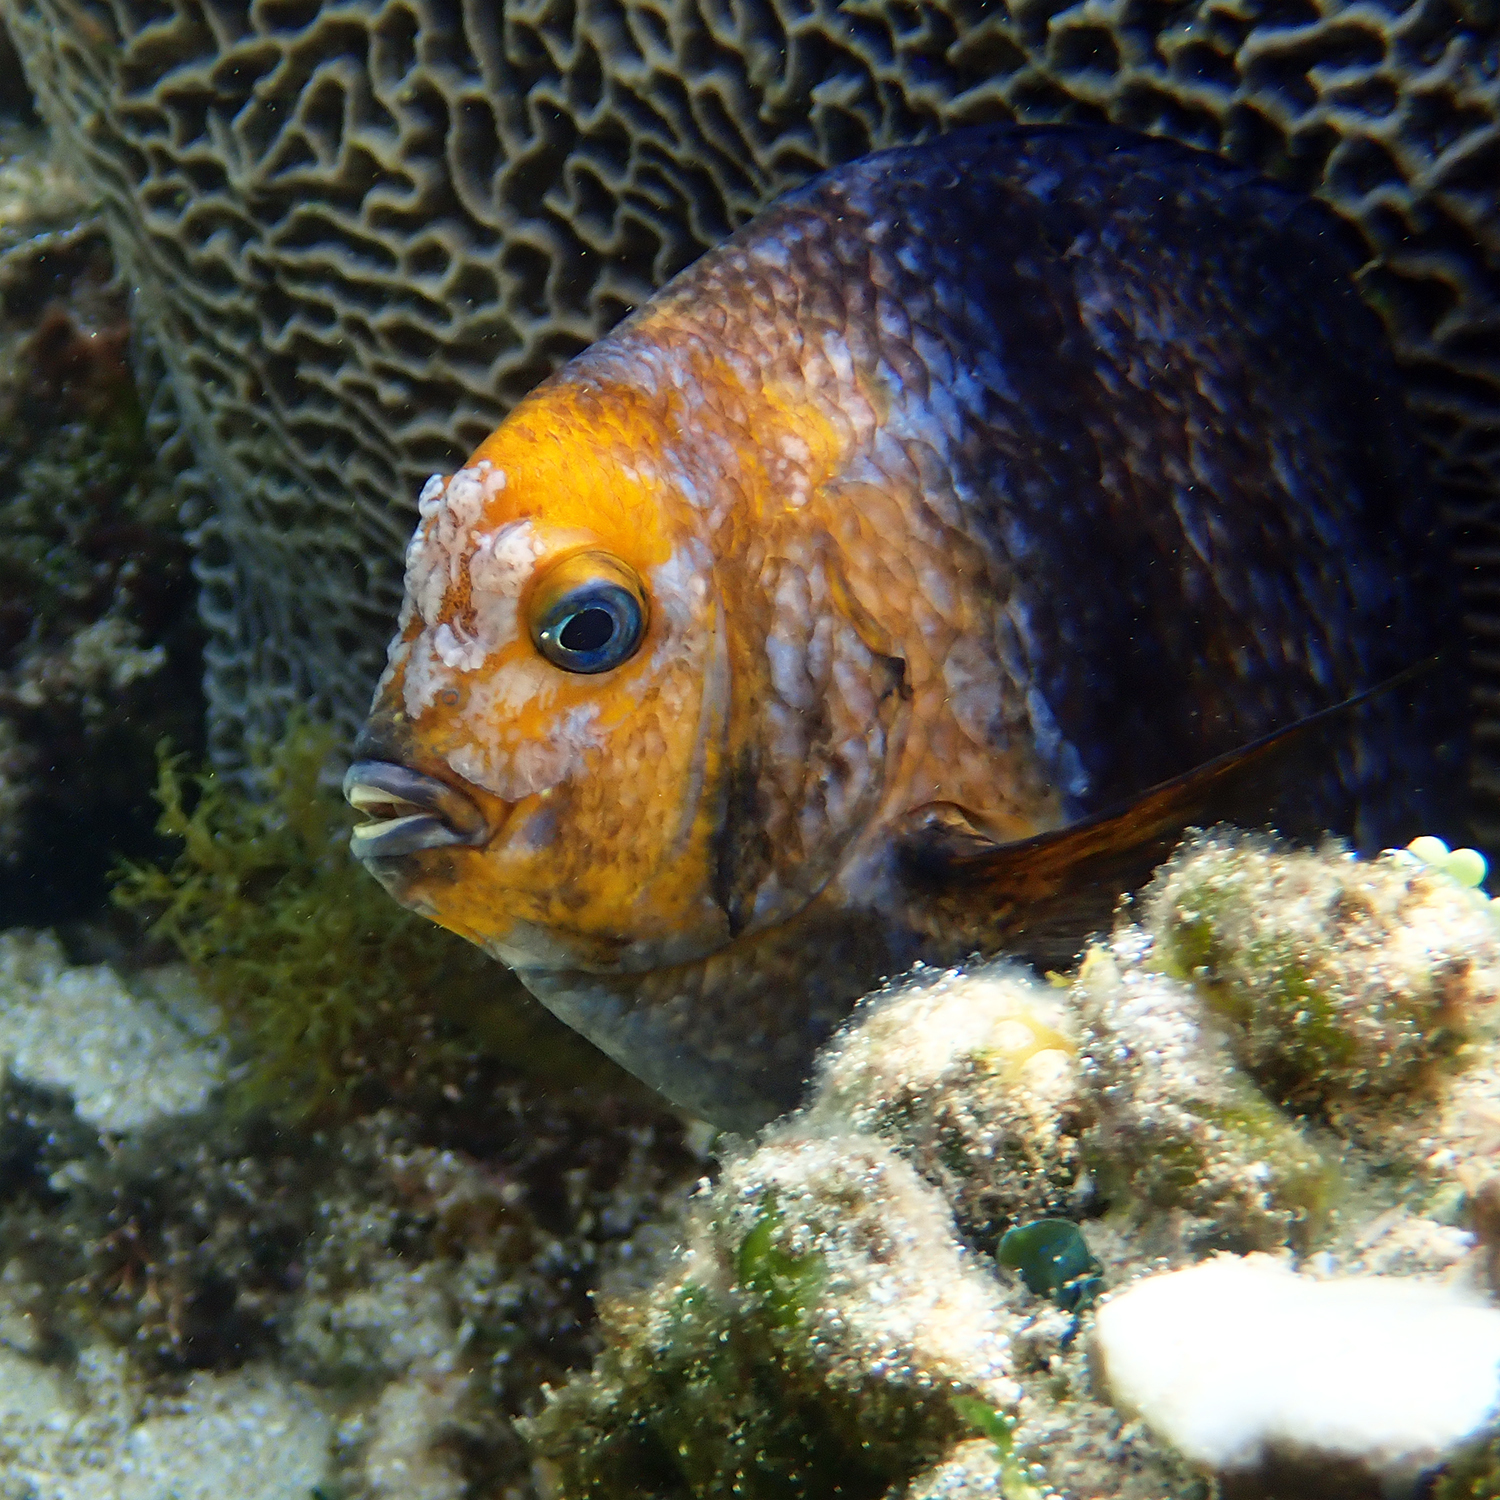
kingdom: Animalia
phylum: Chordata
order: Perciformes
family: Pomacentridae
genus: Parma
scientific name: Parma polylepis
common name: Banded parma
